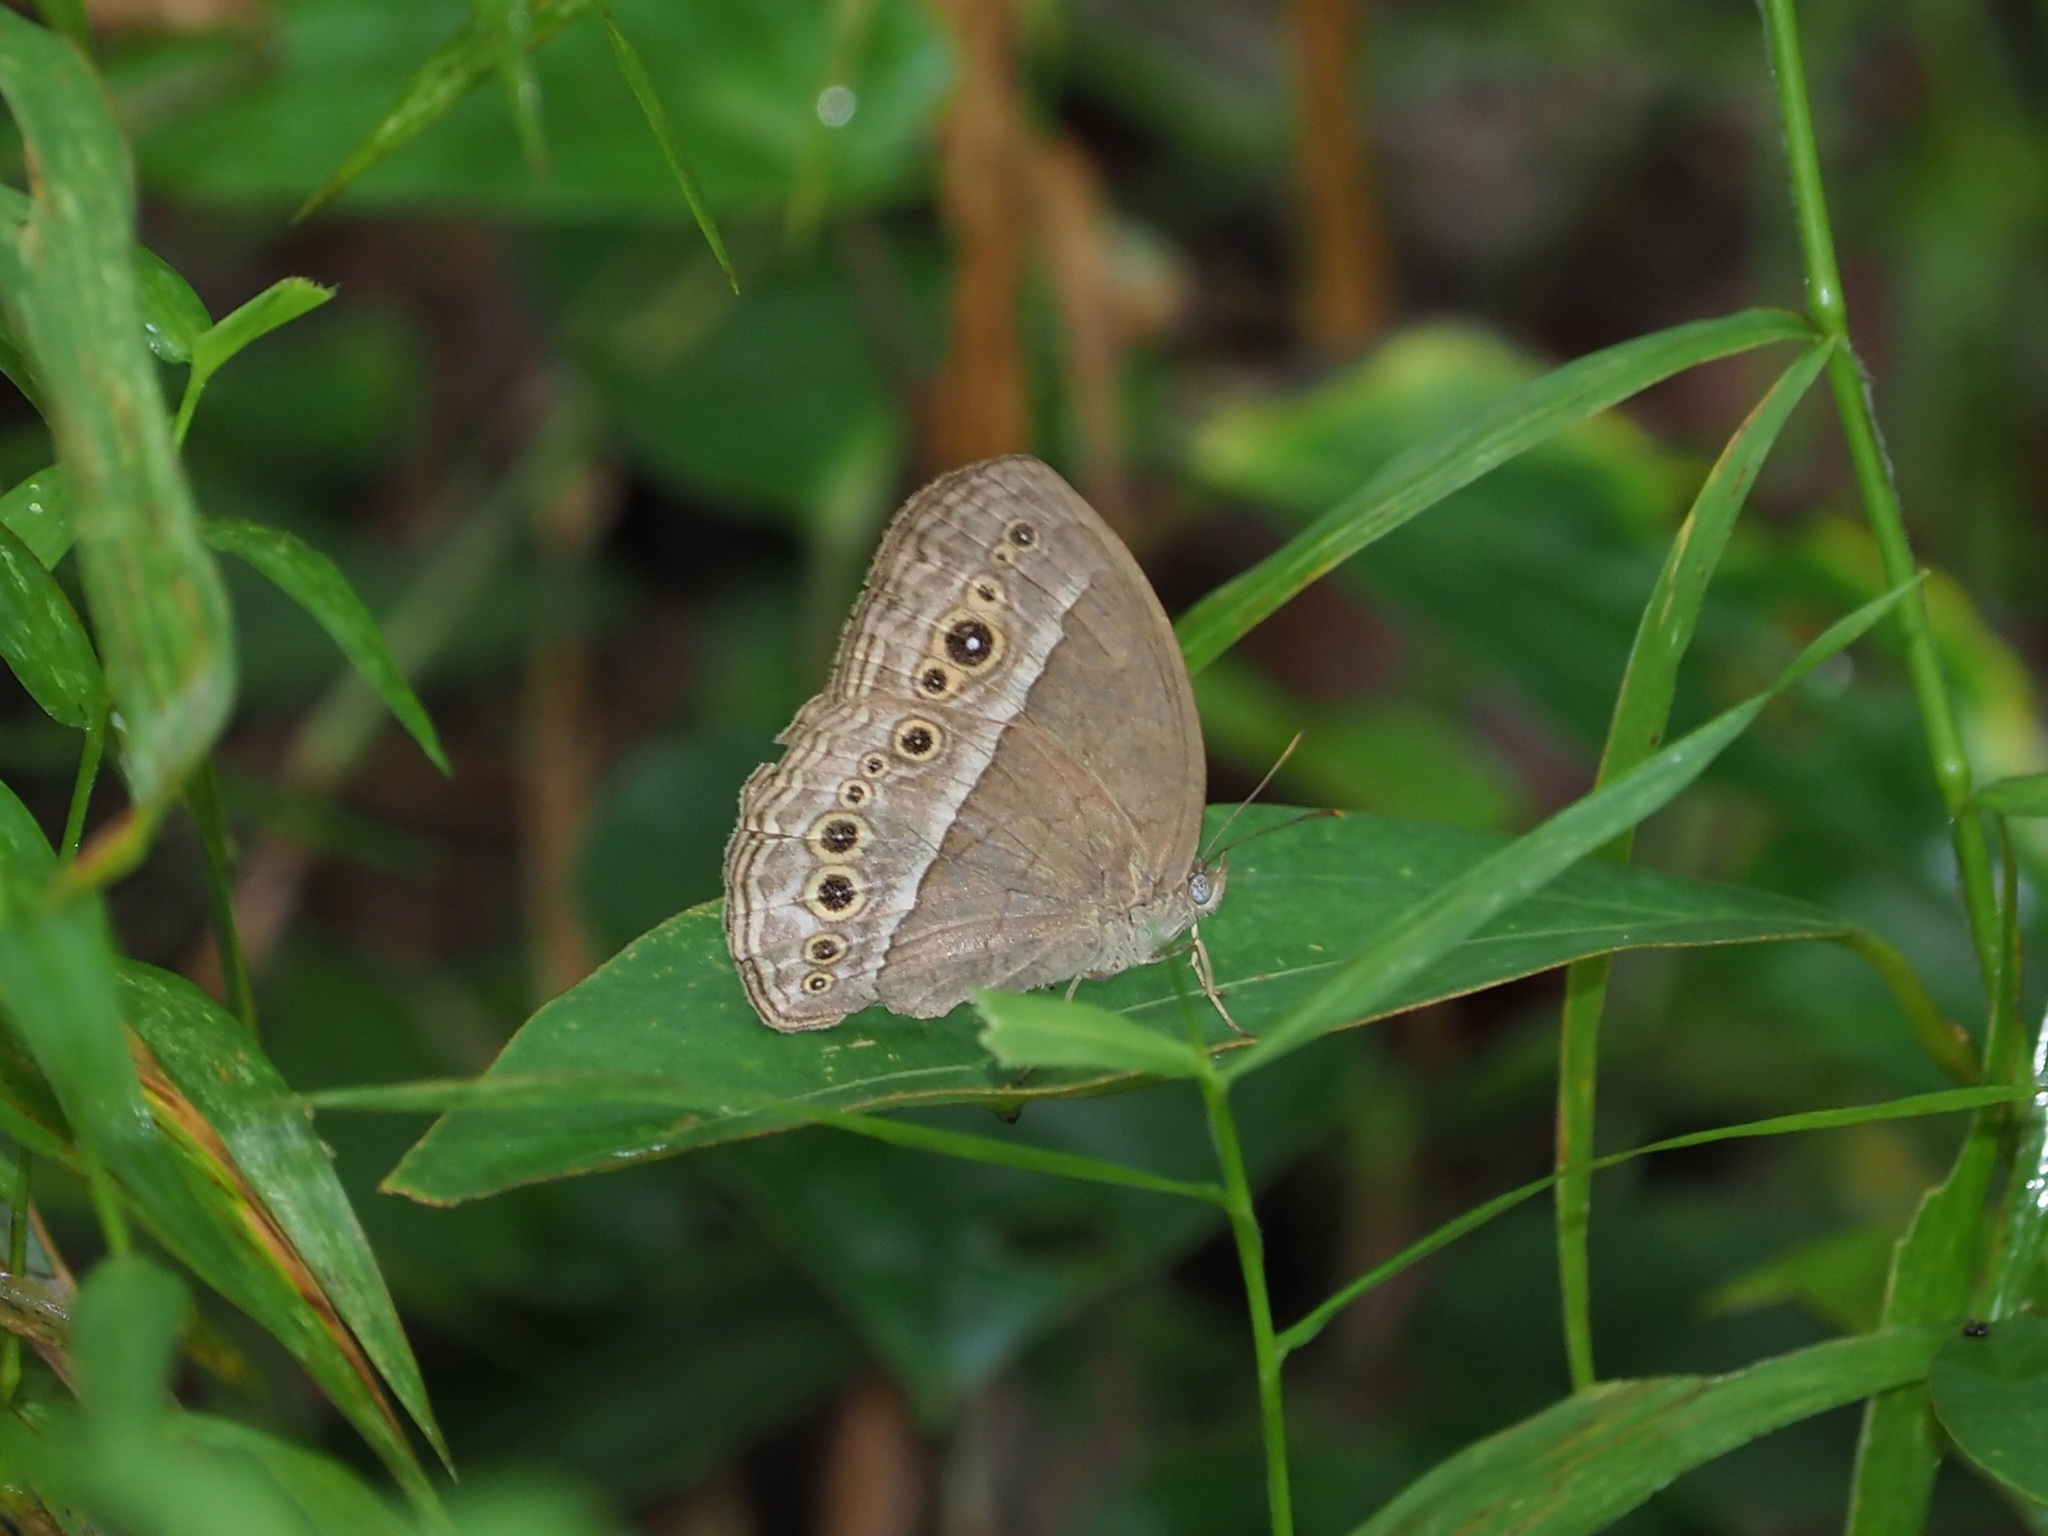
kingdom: Animalia
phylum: Arthropoda
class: Insecta
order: Lepidoptera
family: Nymphalidae
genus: Mycalesis
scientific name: Mycalesis perseoides
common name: Burmese bushbrown
